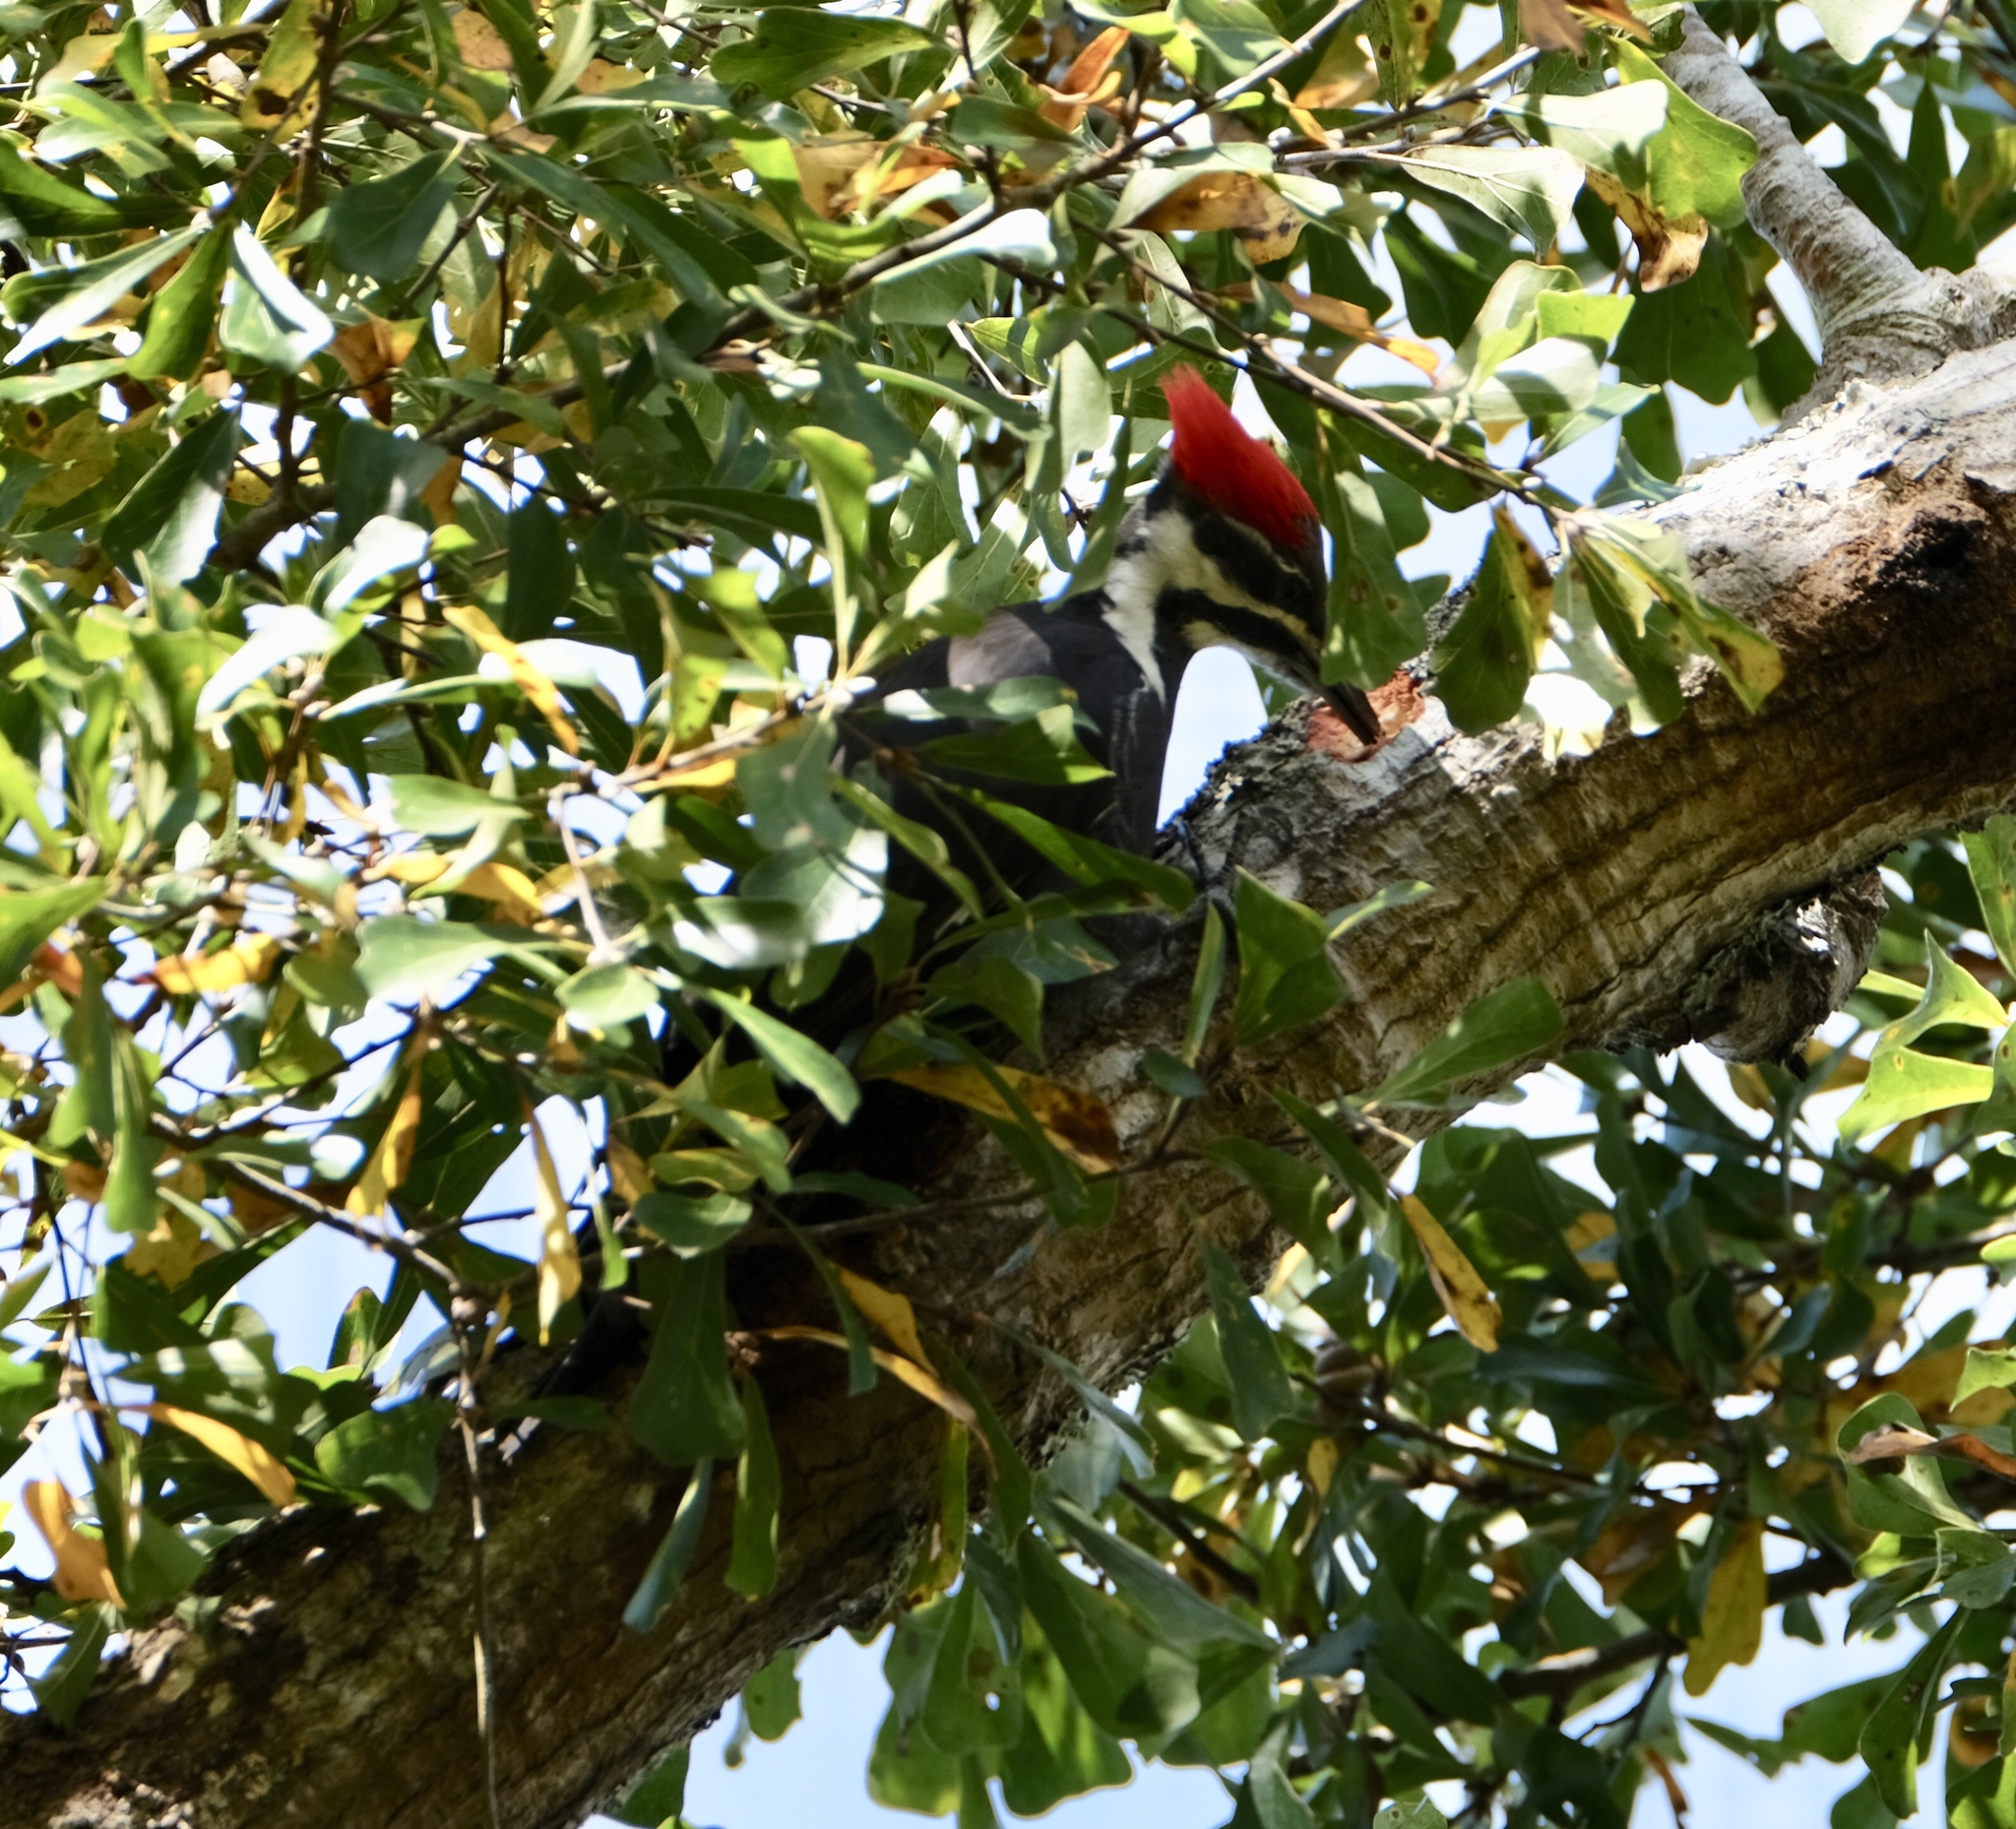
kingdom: Animalia
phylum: Chordata
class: Aves
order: Piciformes
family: Picidae
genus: Dryocopus
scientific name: Dryocopus pileatus
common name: Pileated woodpecker
